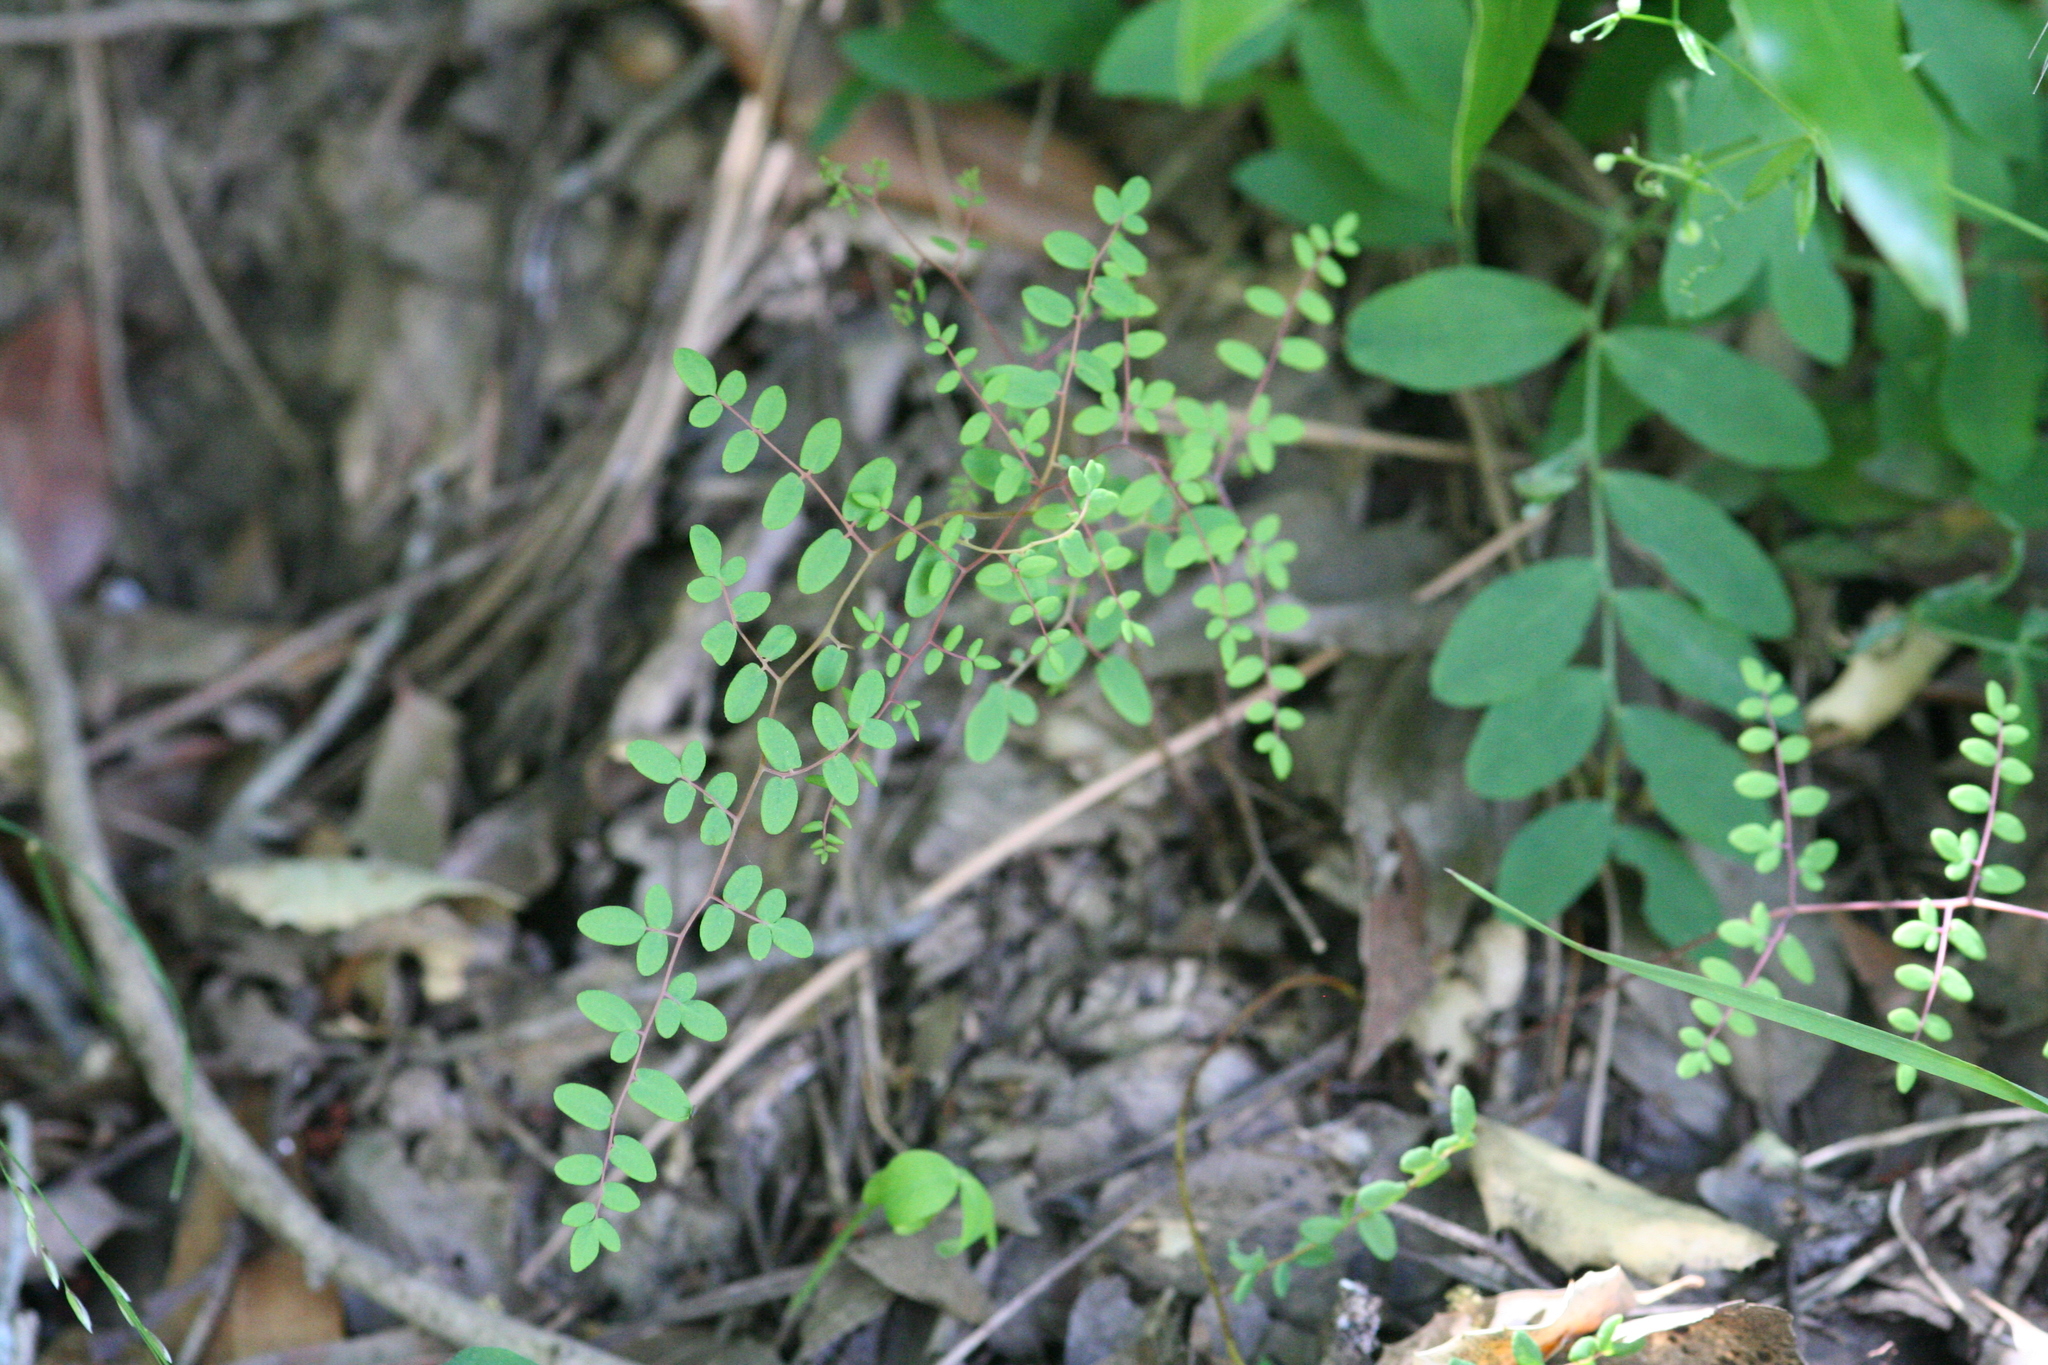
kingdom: Plantae
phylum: Tracheophyta
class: Polypodiopsida
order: Polypodiales
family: Pteridaceae
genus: Pellaea
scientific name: Pellaea andromedifolia
